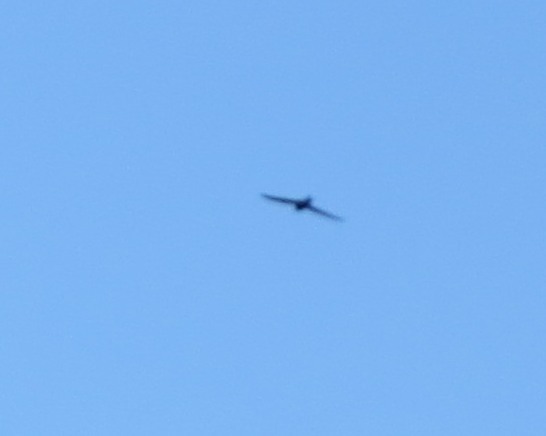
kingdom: Animalia
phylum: Chordata
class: Aves
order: Apodiformes
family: Apodidae
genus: Apus
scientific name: Apus apus
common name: Common swift
